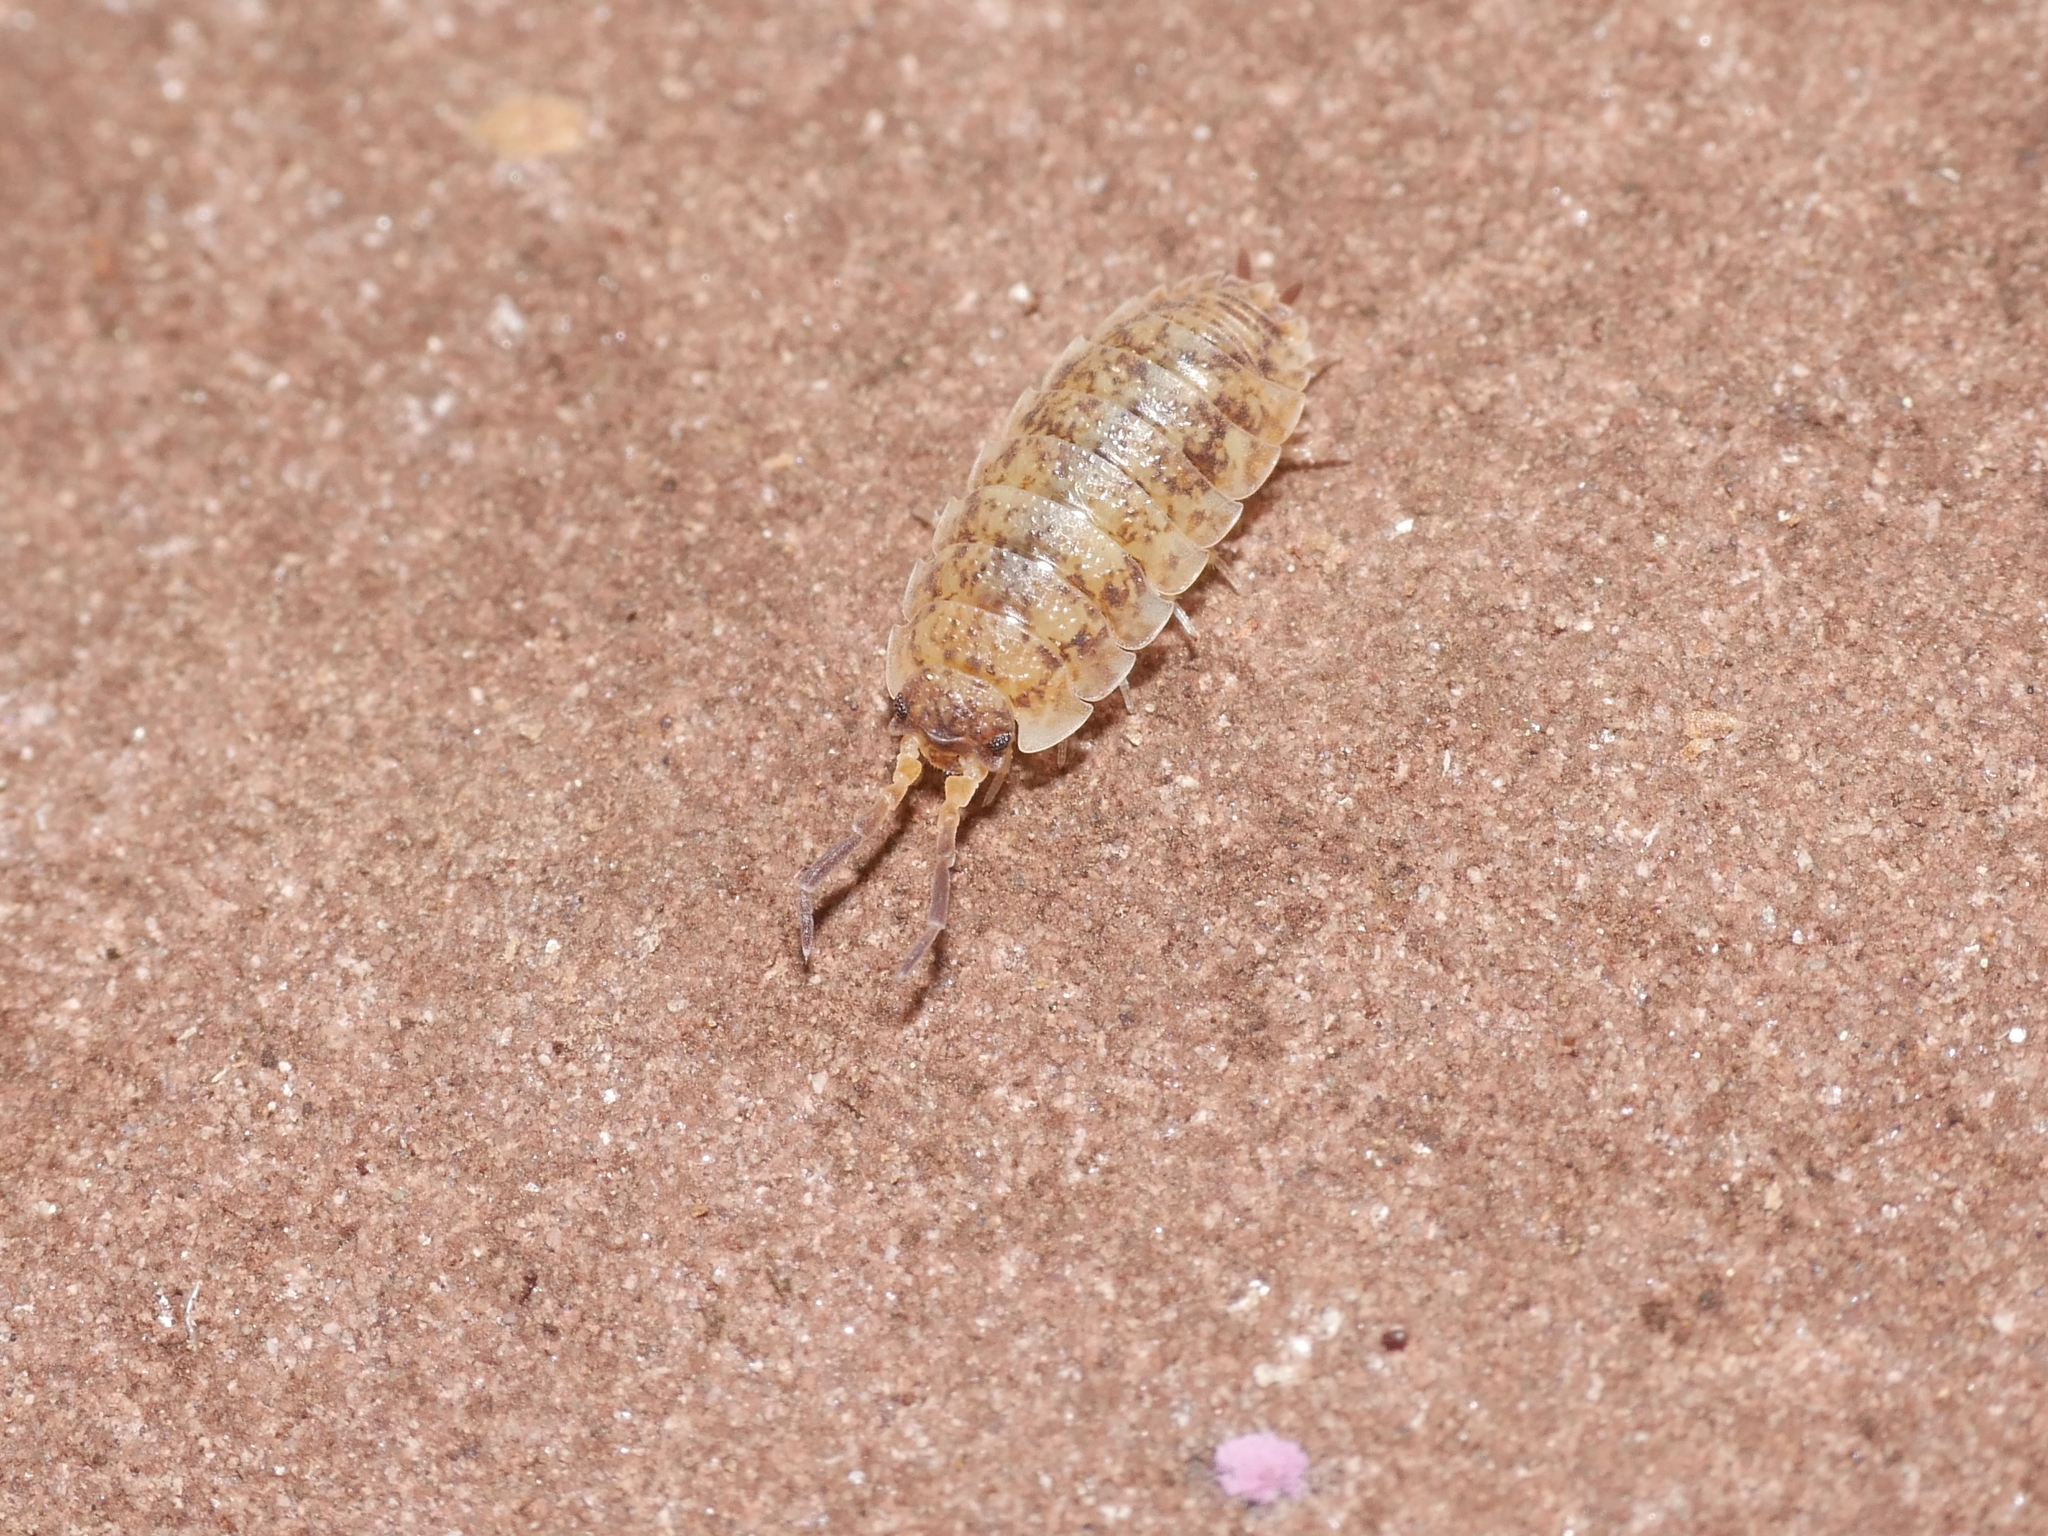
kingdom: Animalia
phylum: Arthropoda
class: Malacostraca
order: Isopoda
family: Porcellionidae
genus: Porcellio
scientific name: Porcellio scaber
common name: Common rough woodlouse
